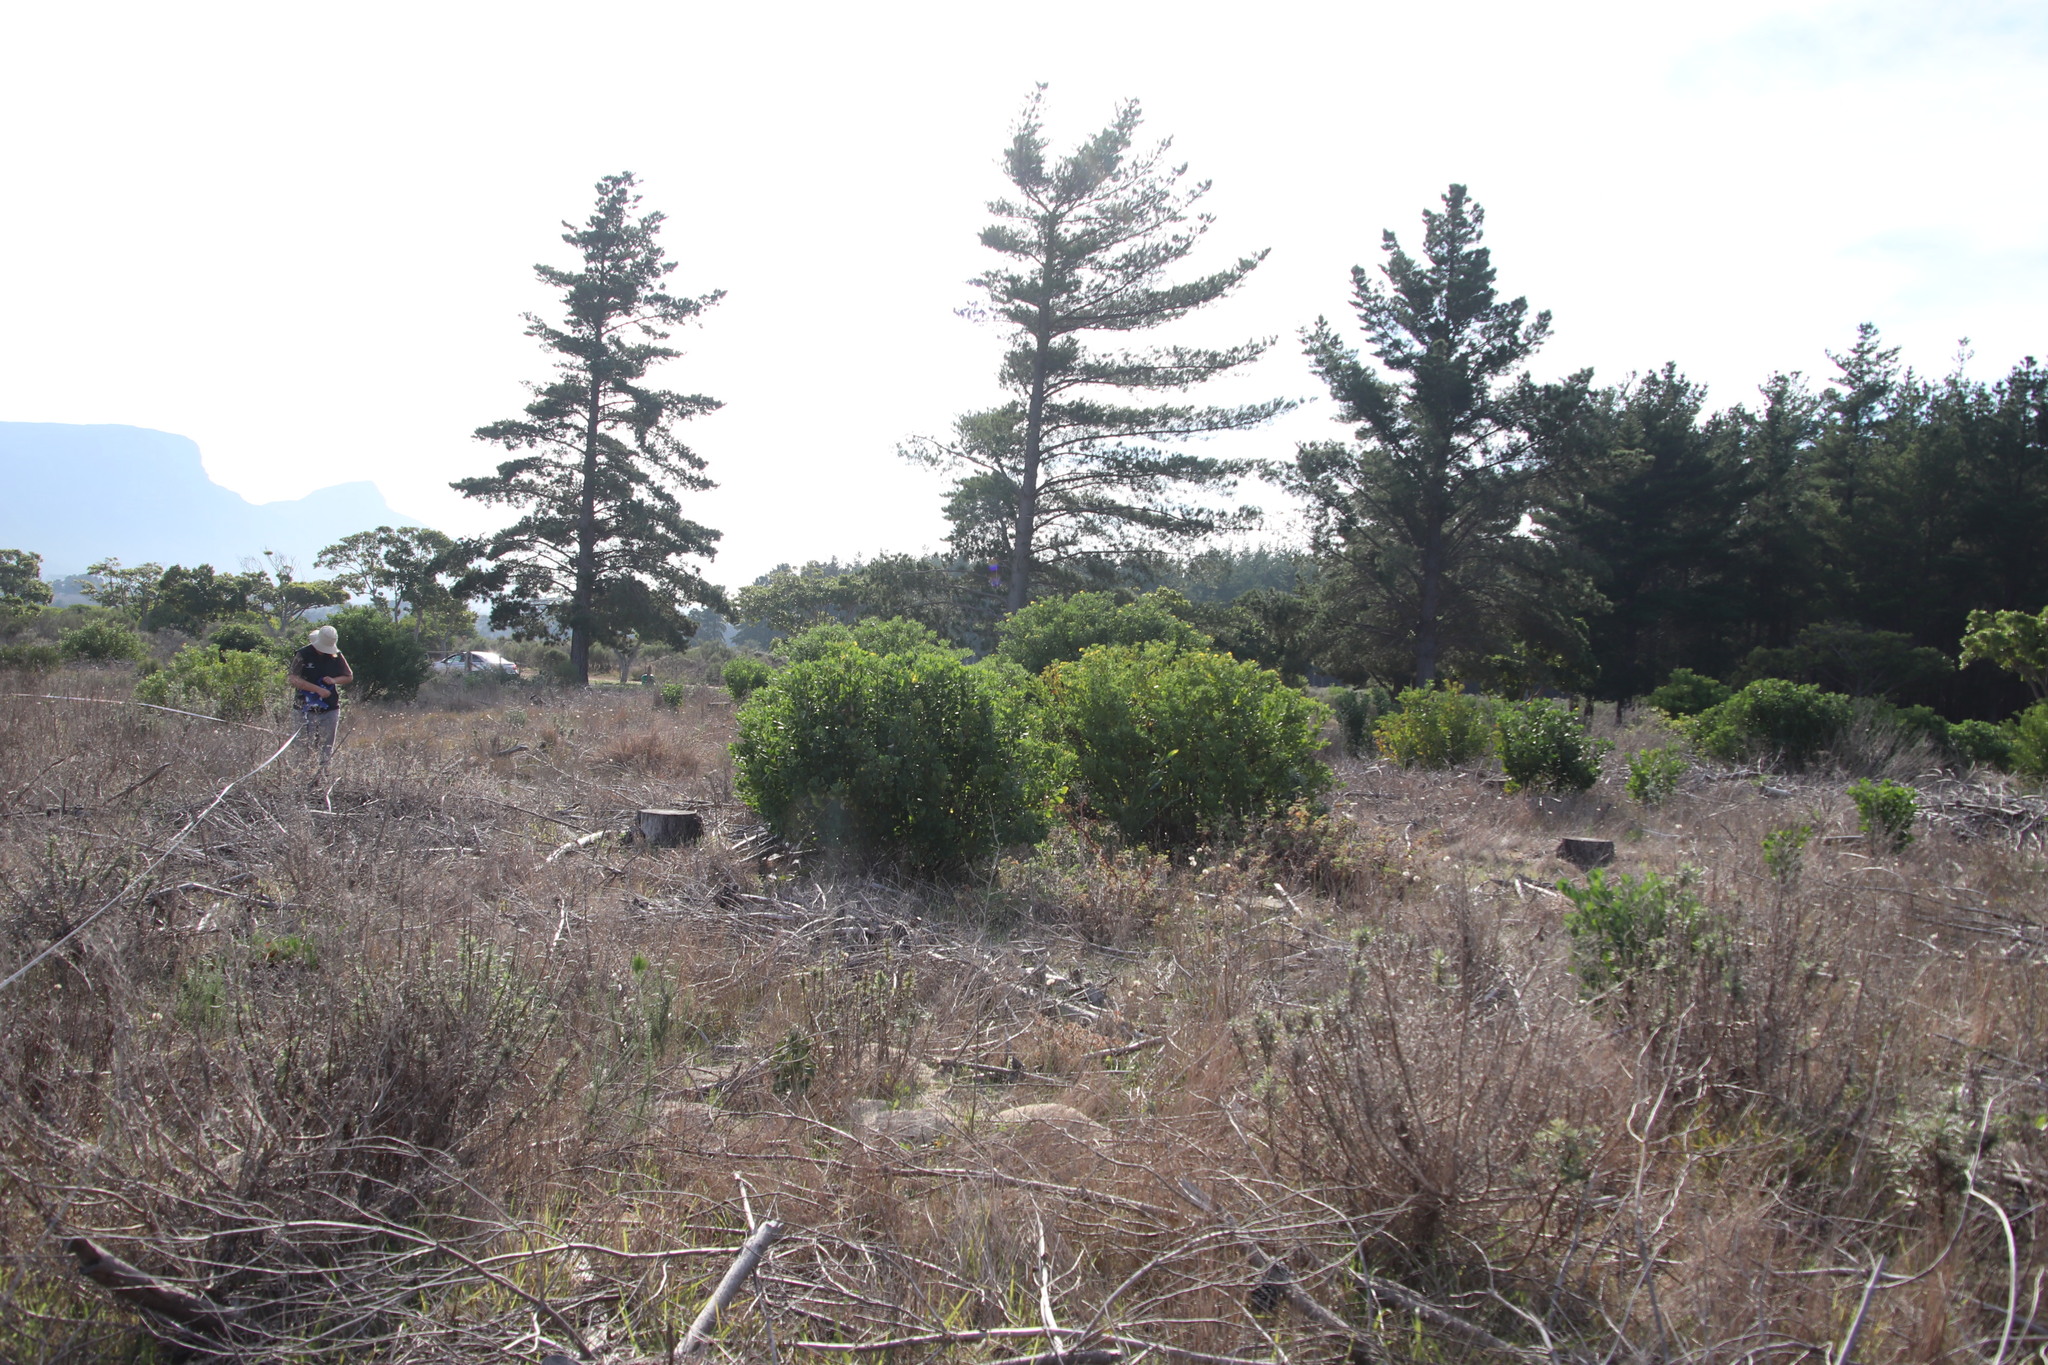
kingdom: Plantae
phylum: Tracheophyta
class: Magnoliopsida
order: Asterales
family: Asteraceae
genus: Osteospermum
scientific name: Osteospermum moniliferum
